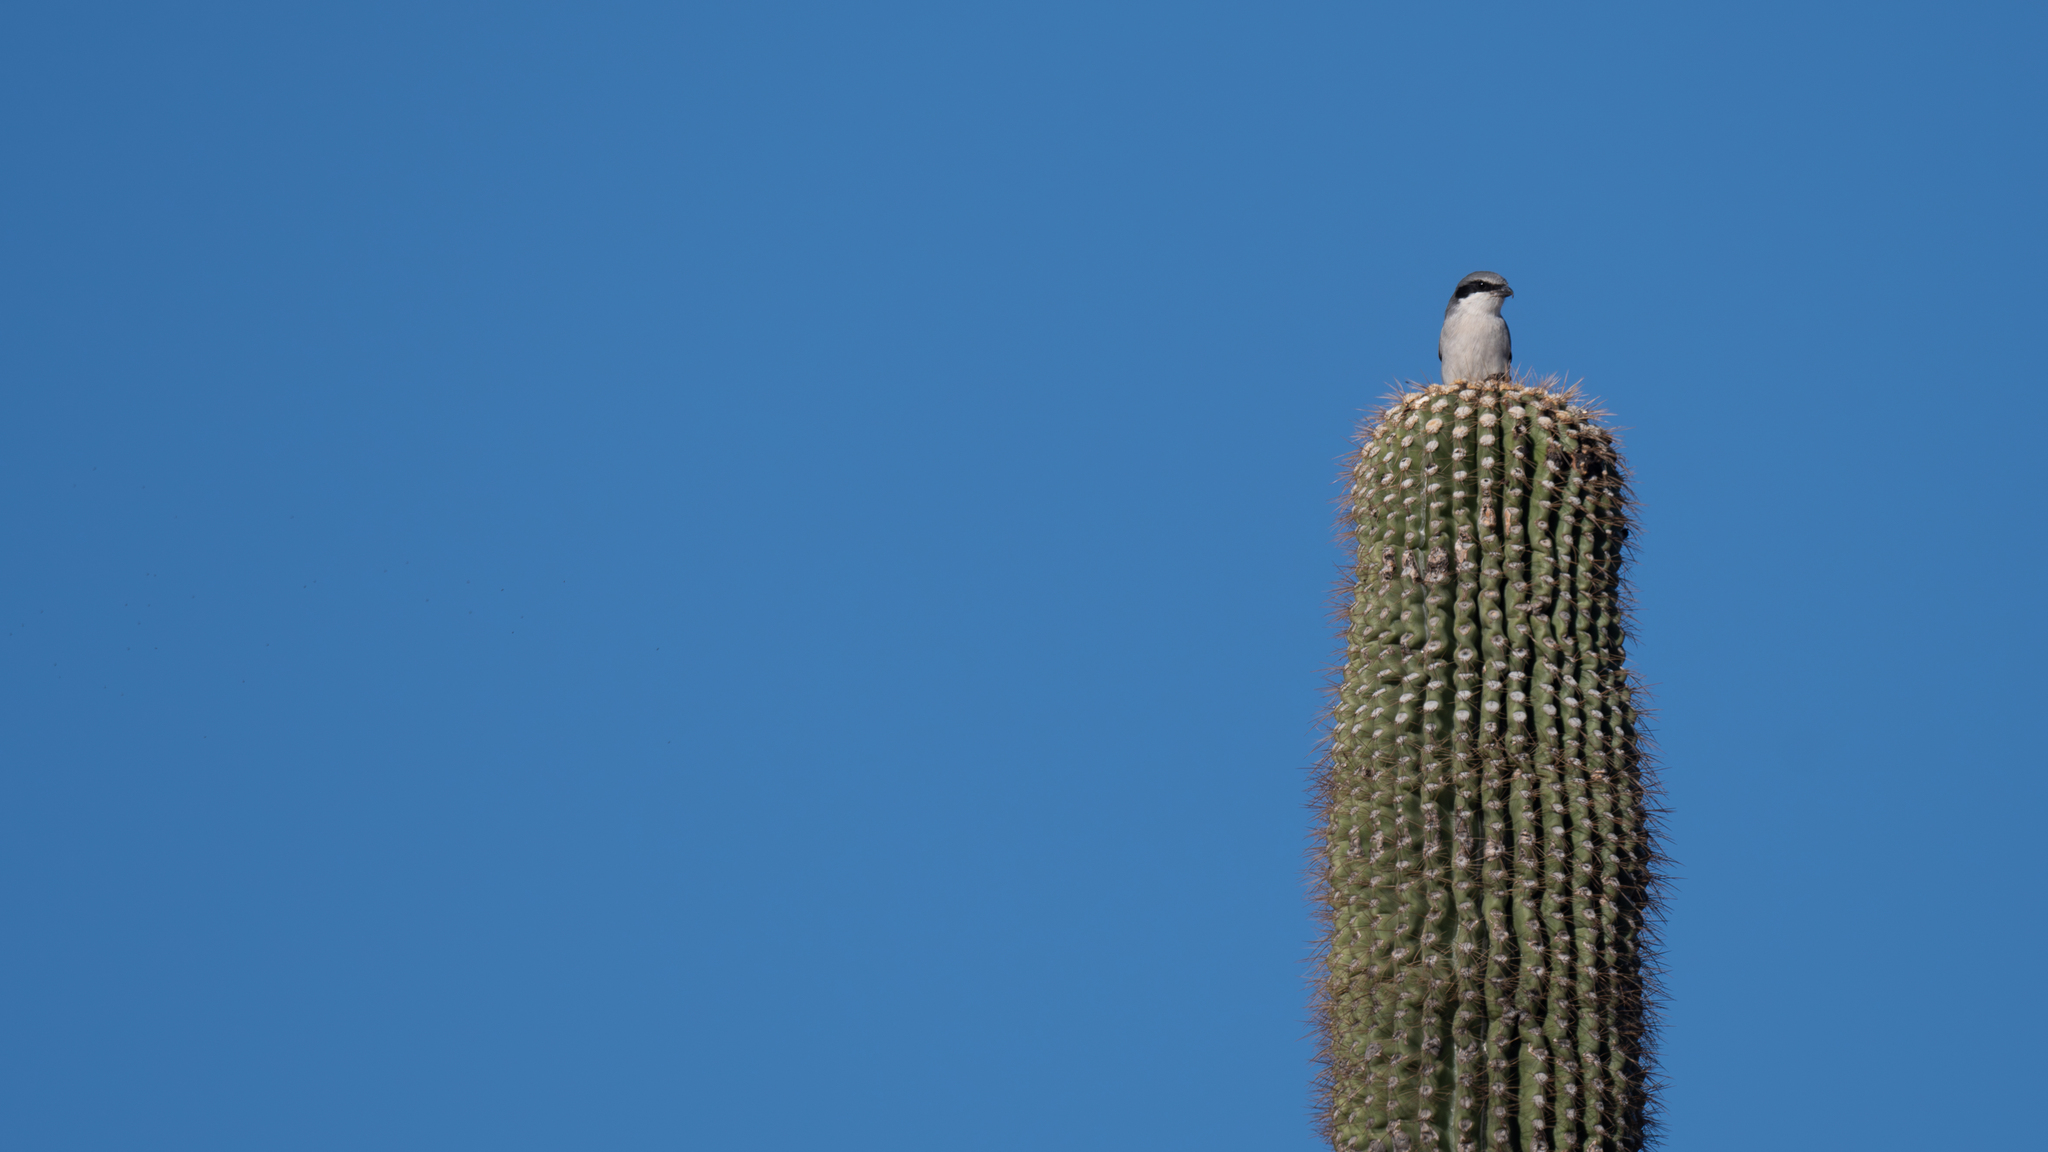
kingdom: Animalia
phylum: Chordata
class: Aves
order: Passeriformes
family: Laniidae
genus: Lanius
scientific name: Lanius ludovicianus
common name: Loggerhead shrike
